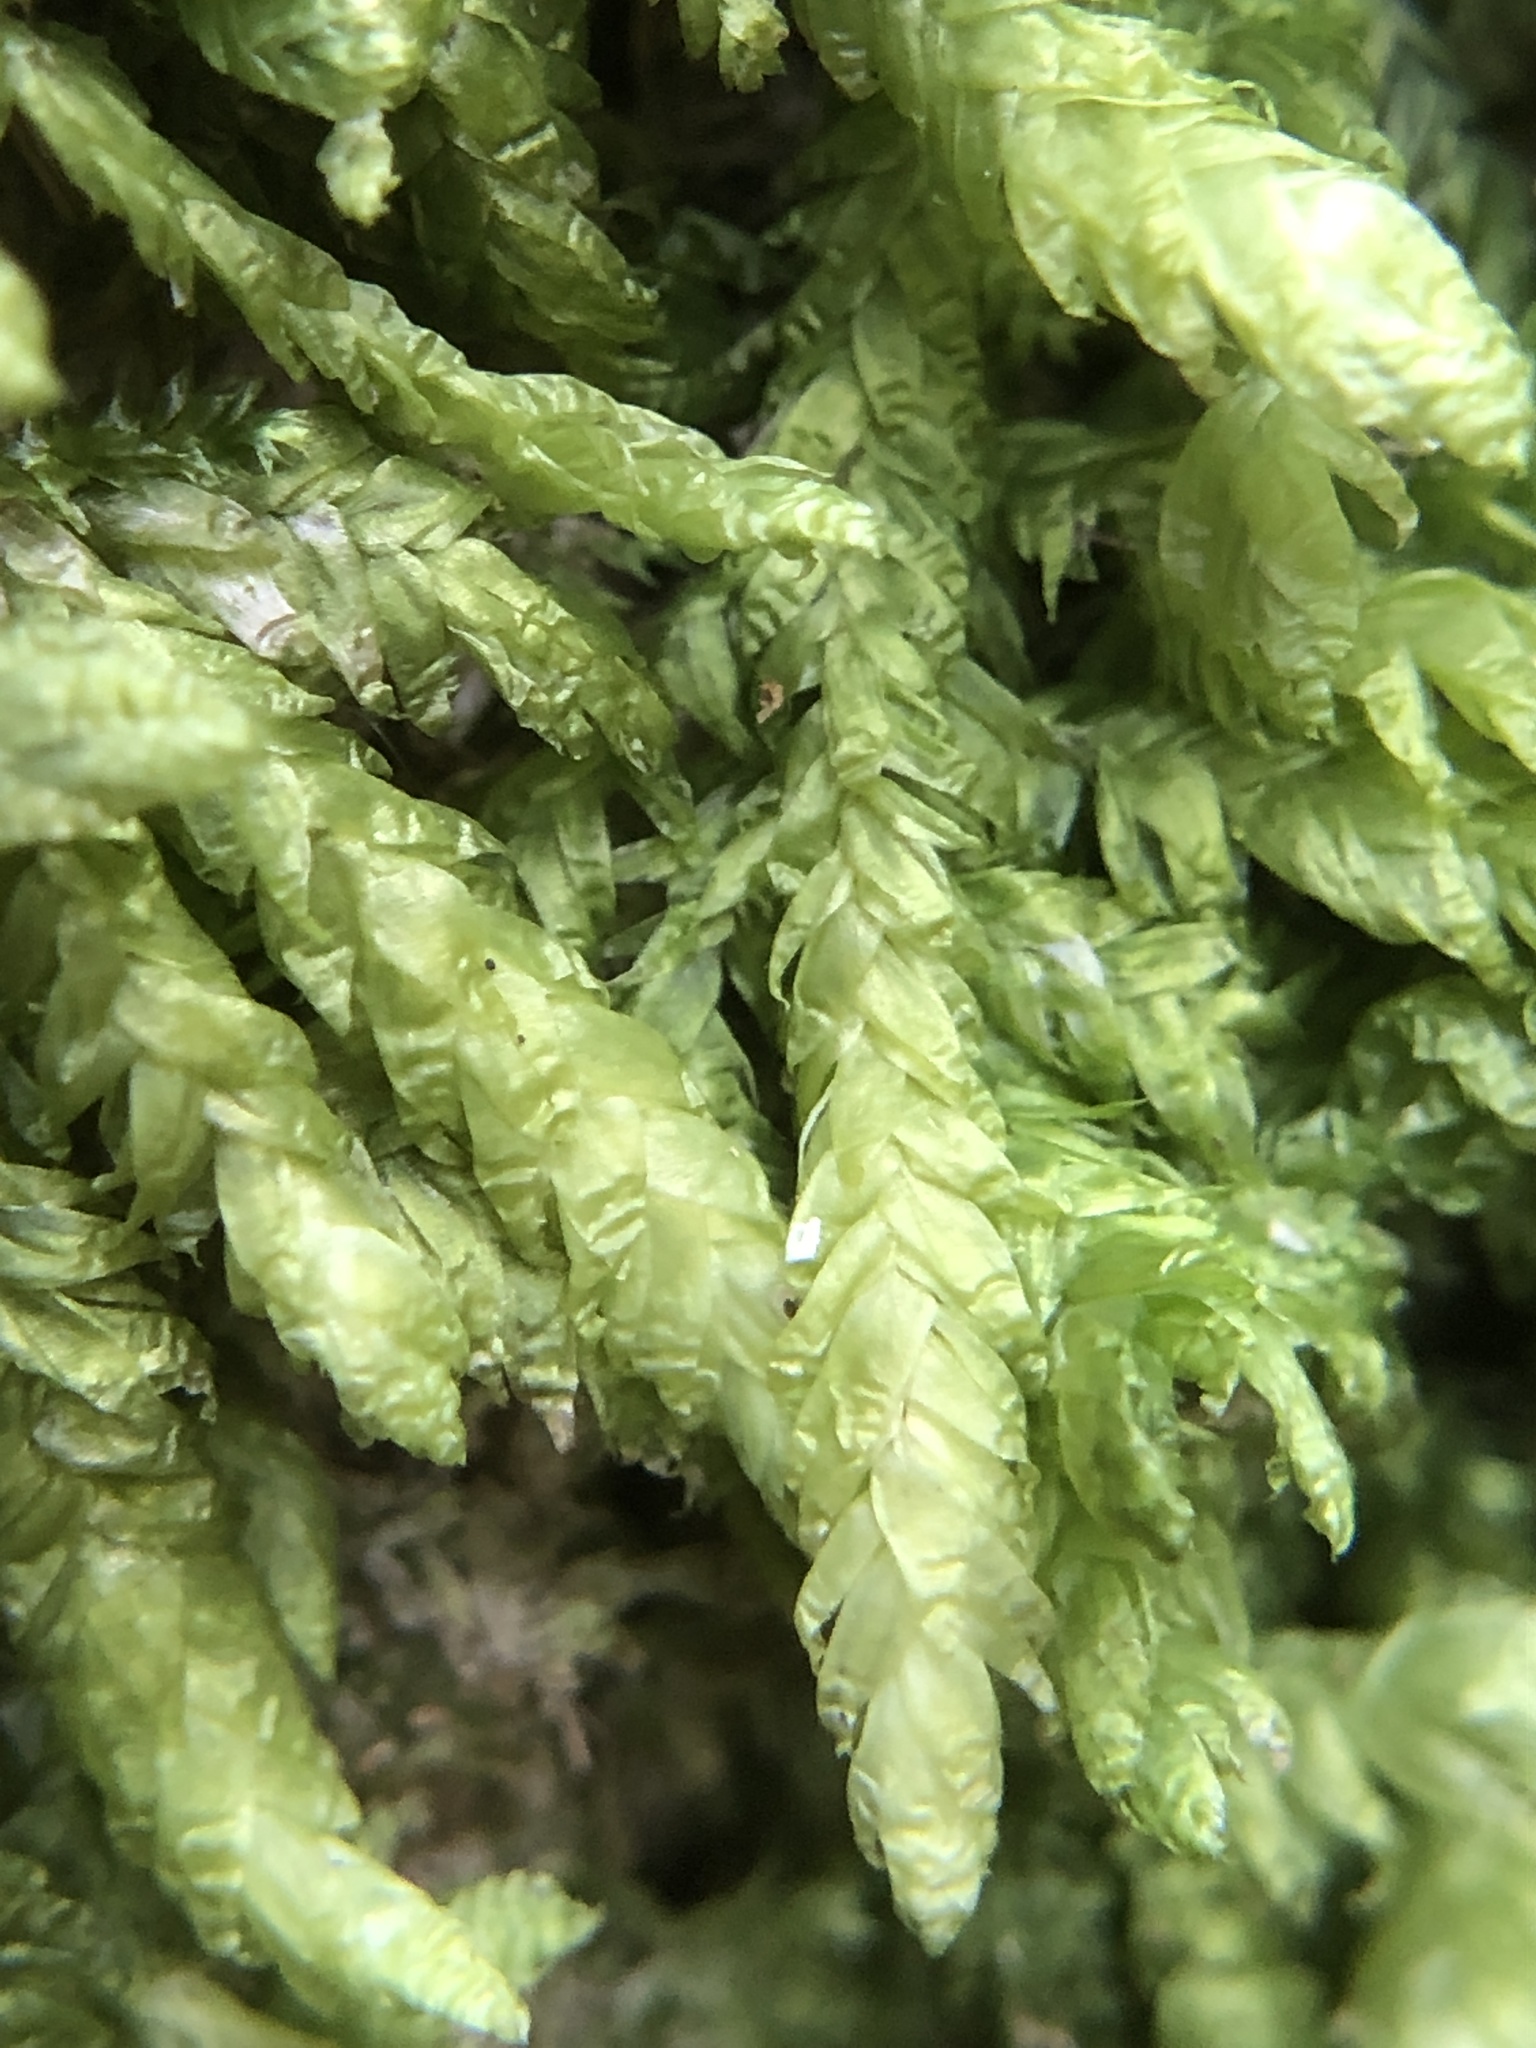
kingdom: Plantae
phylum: Bryophyta
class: Bryopsida
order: Hypnales
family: Plagiotheciaceae
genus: Plagiothecium
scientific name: Plagiothecium undulatum
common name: Waved silk-moss
